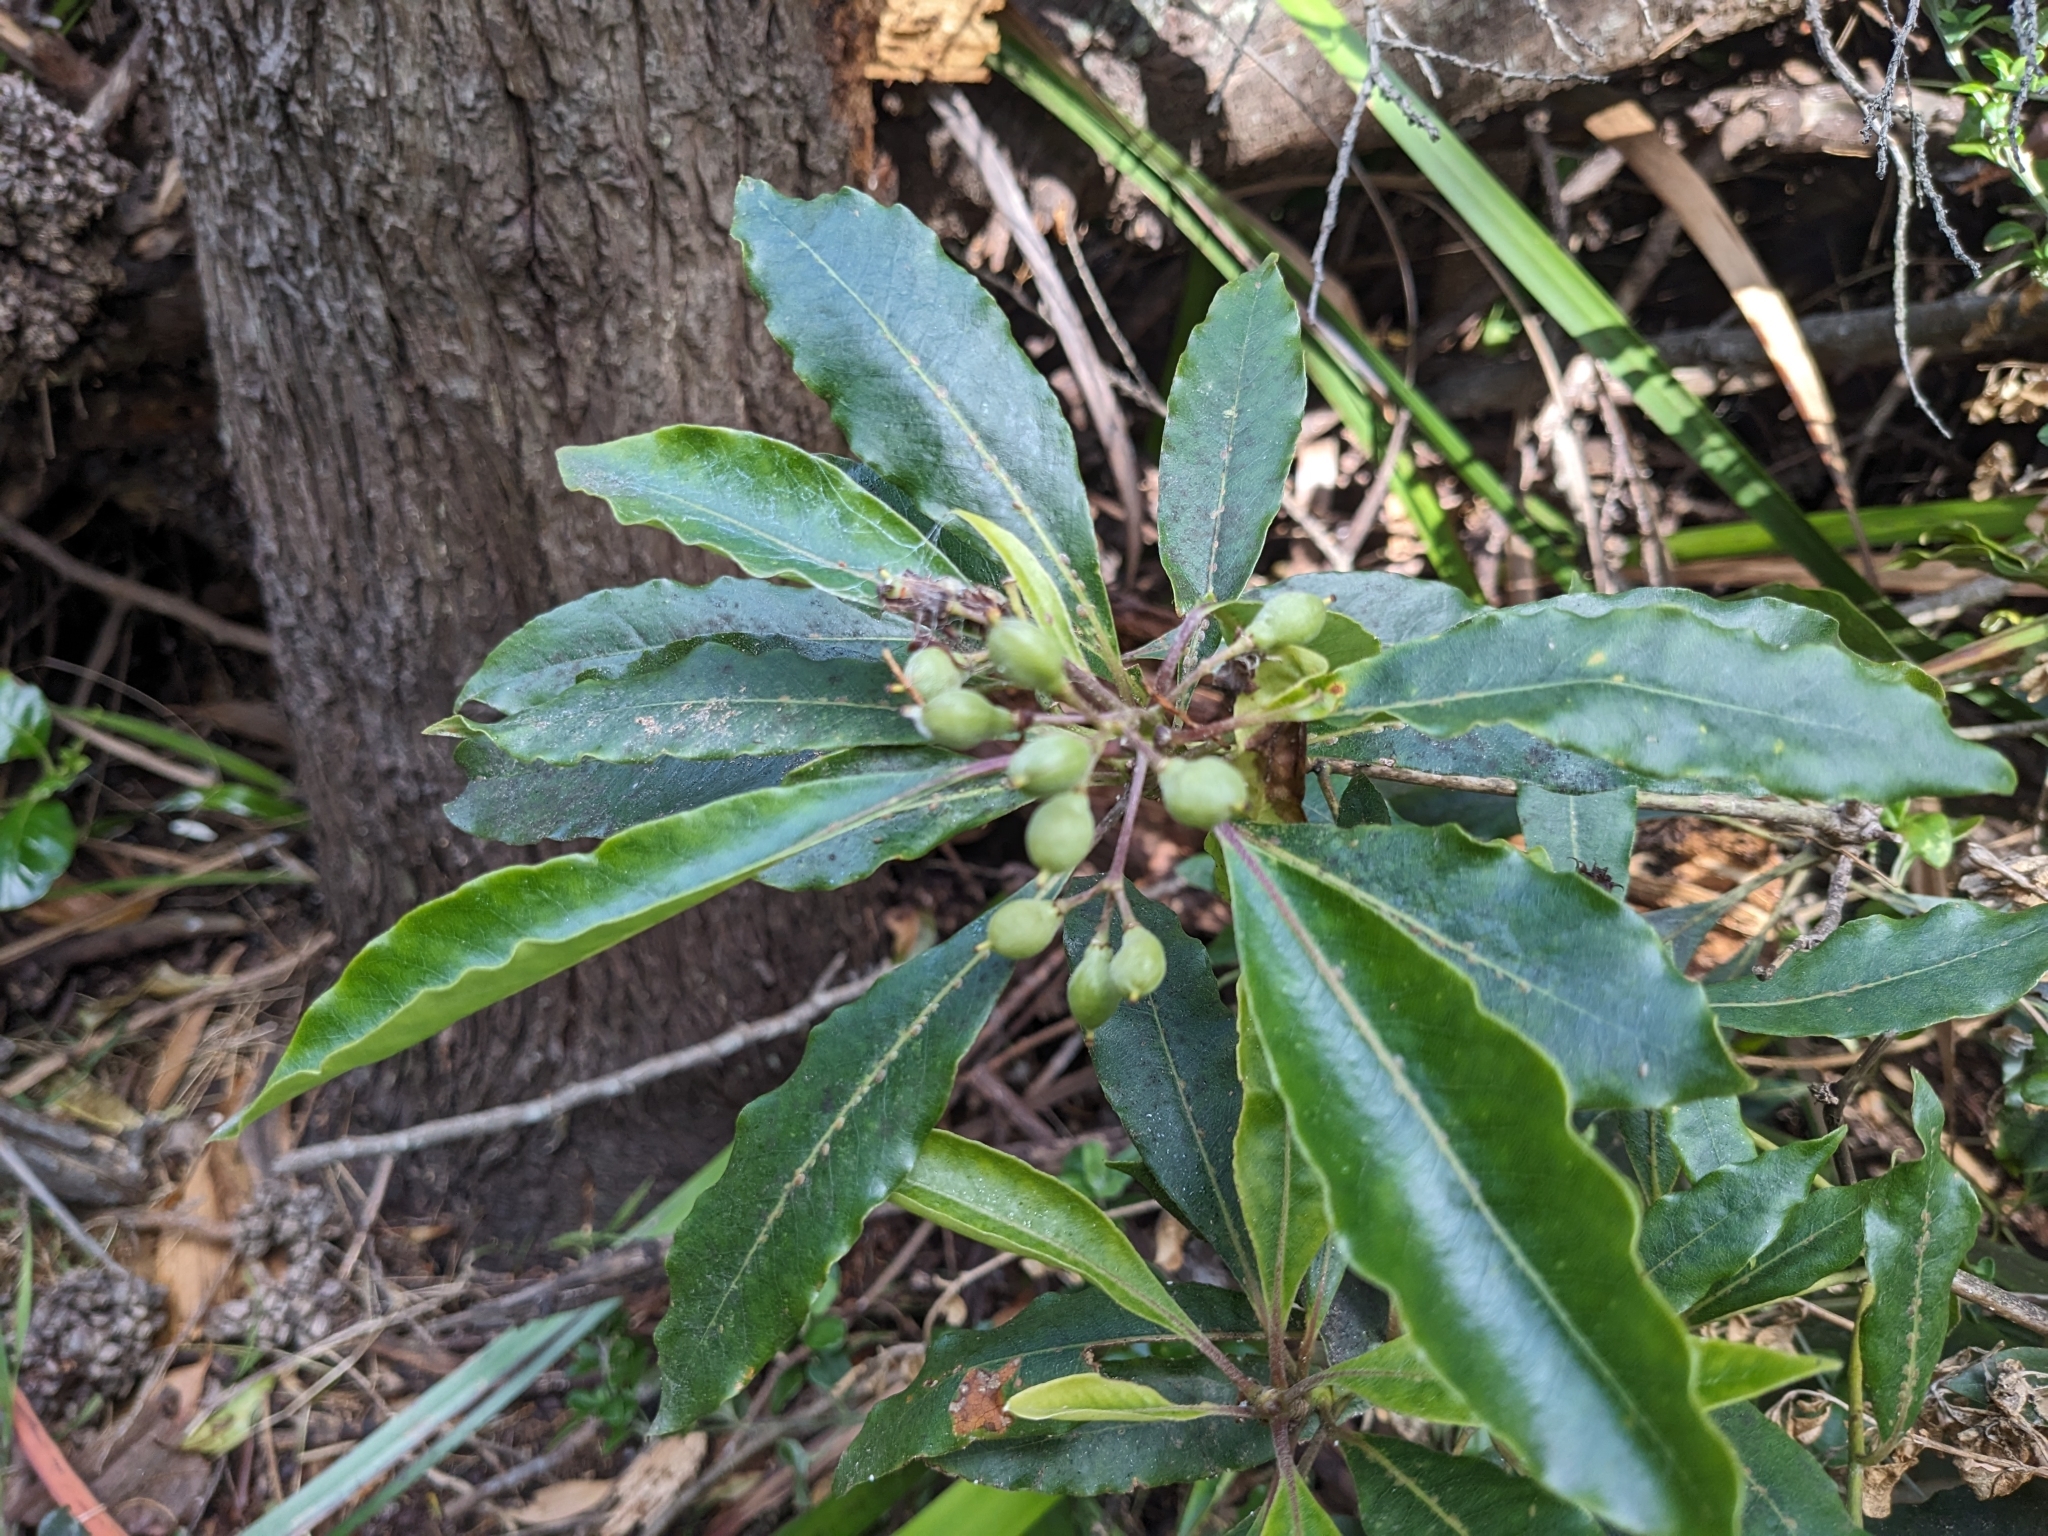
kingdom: Plantae
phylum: Tracheophyta
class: Magnoliopsida
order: Apiales
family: Pittosporaceae
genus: Pittosporum
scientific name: Pittosporum undulatum
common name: Australian cheesewood
